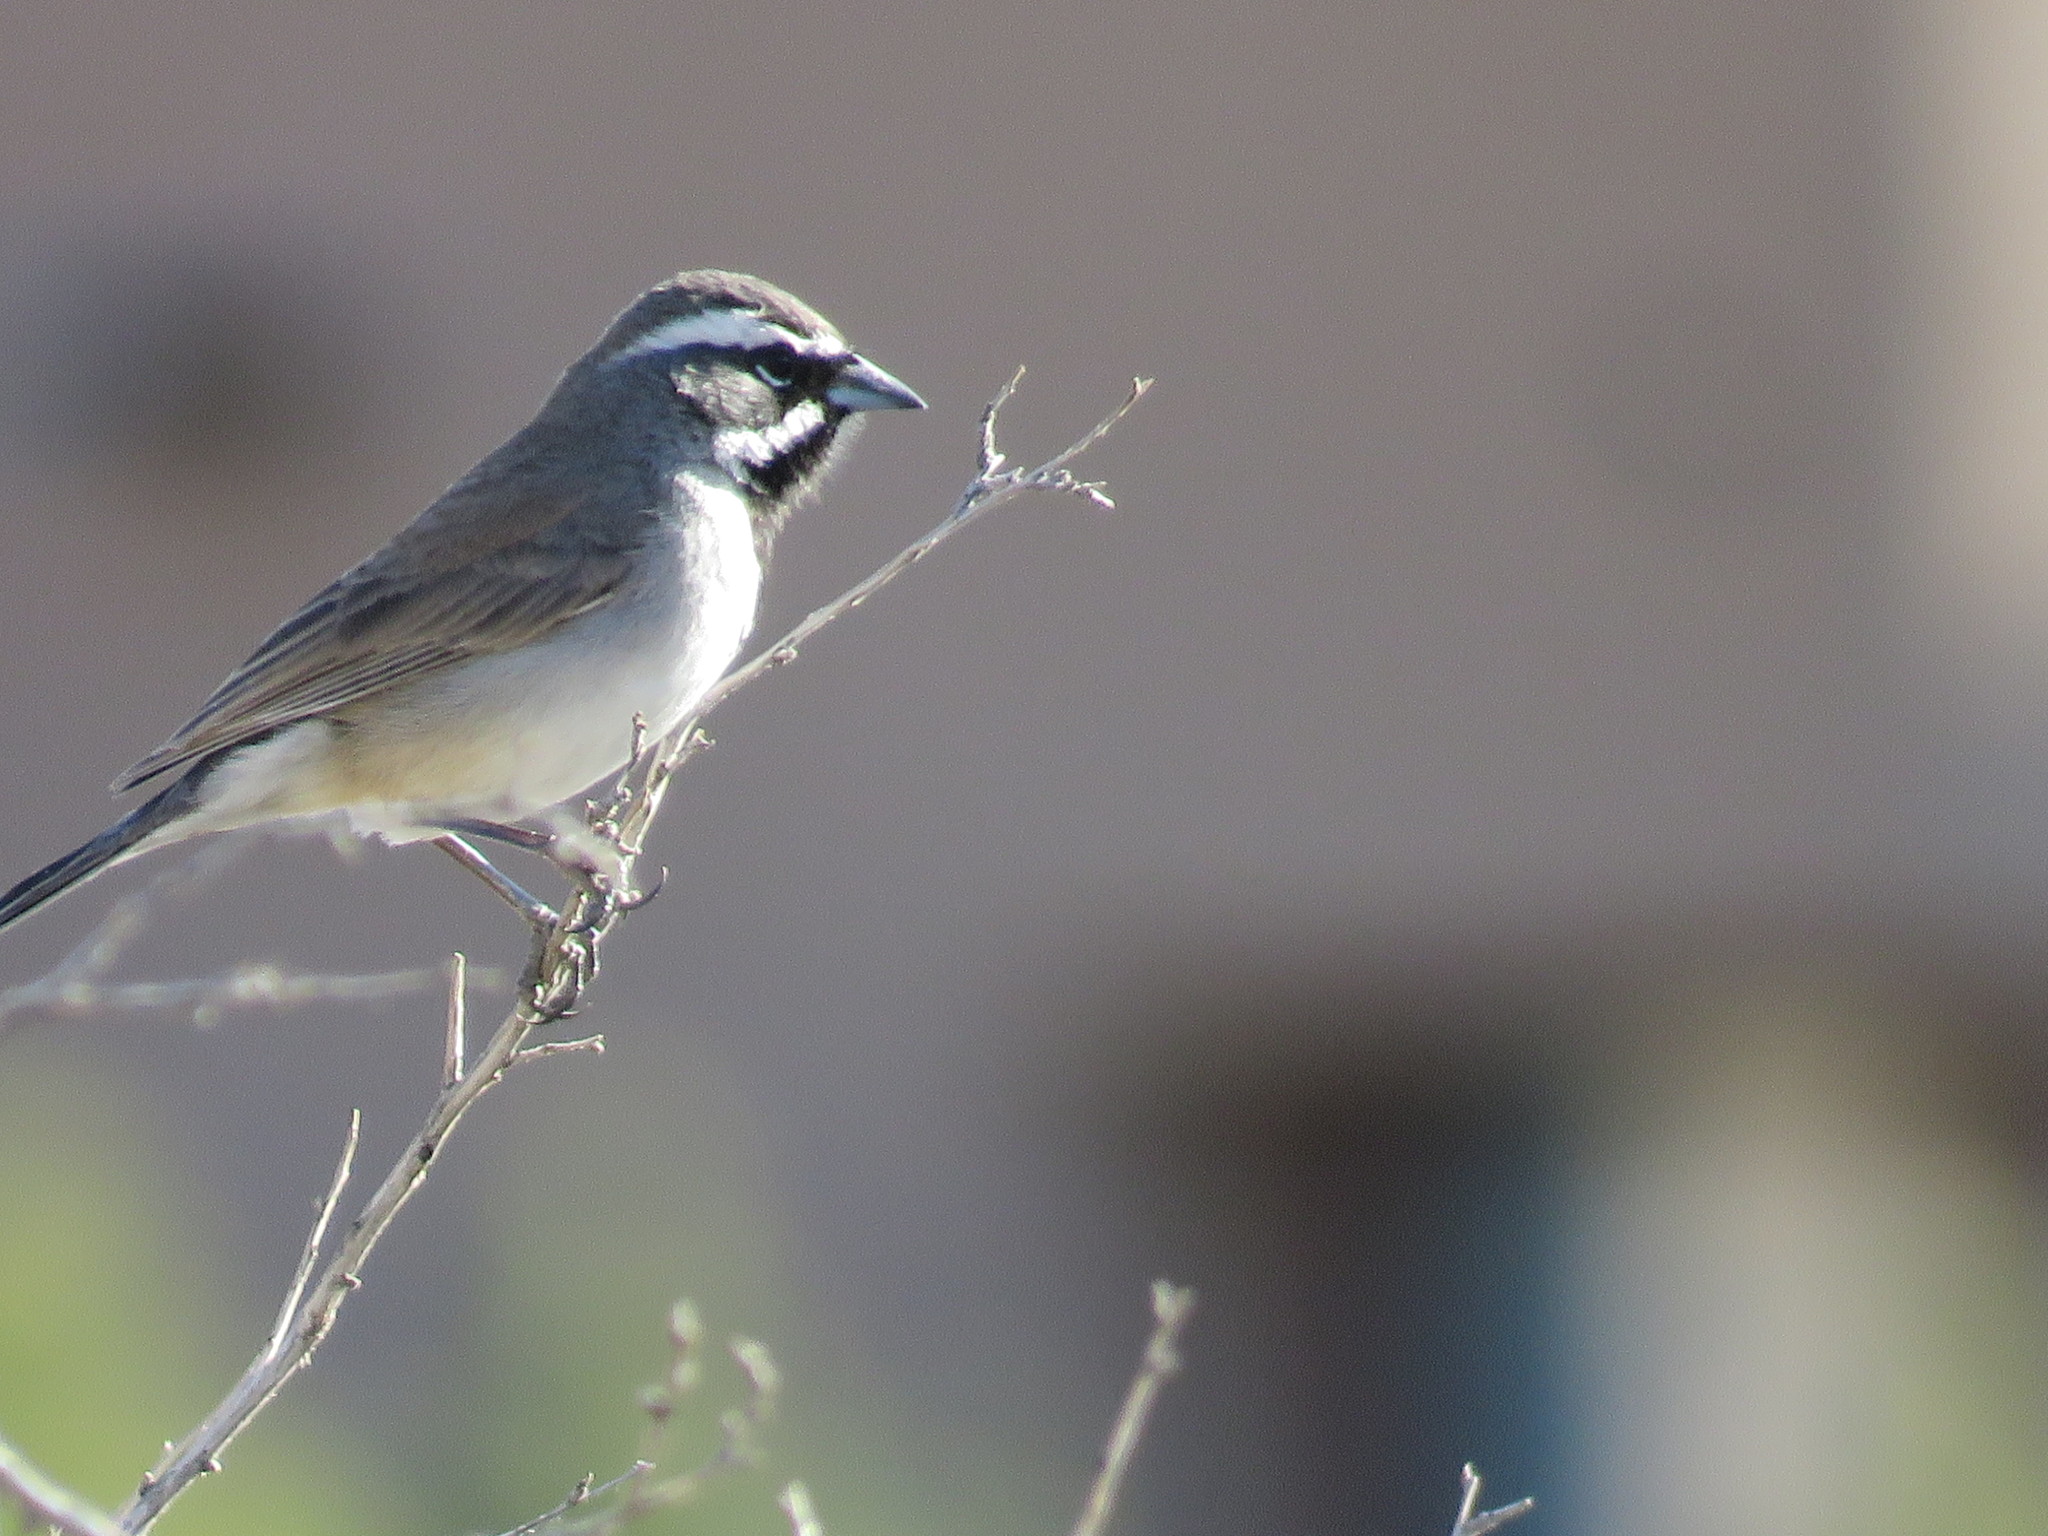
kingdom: Animalia
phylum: Chordata
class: Aves
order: Passeriformes
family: Passerellidae
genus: Amphispiza
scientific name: Amphispiza bilineata
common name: Black-throated sparrow
